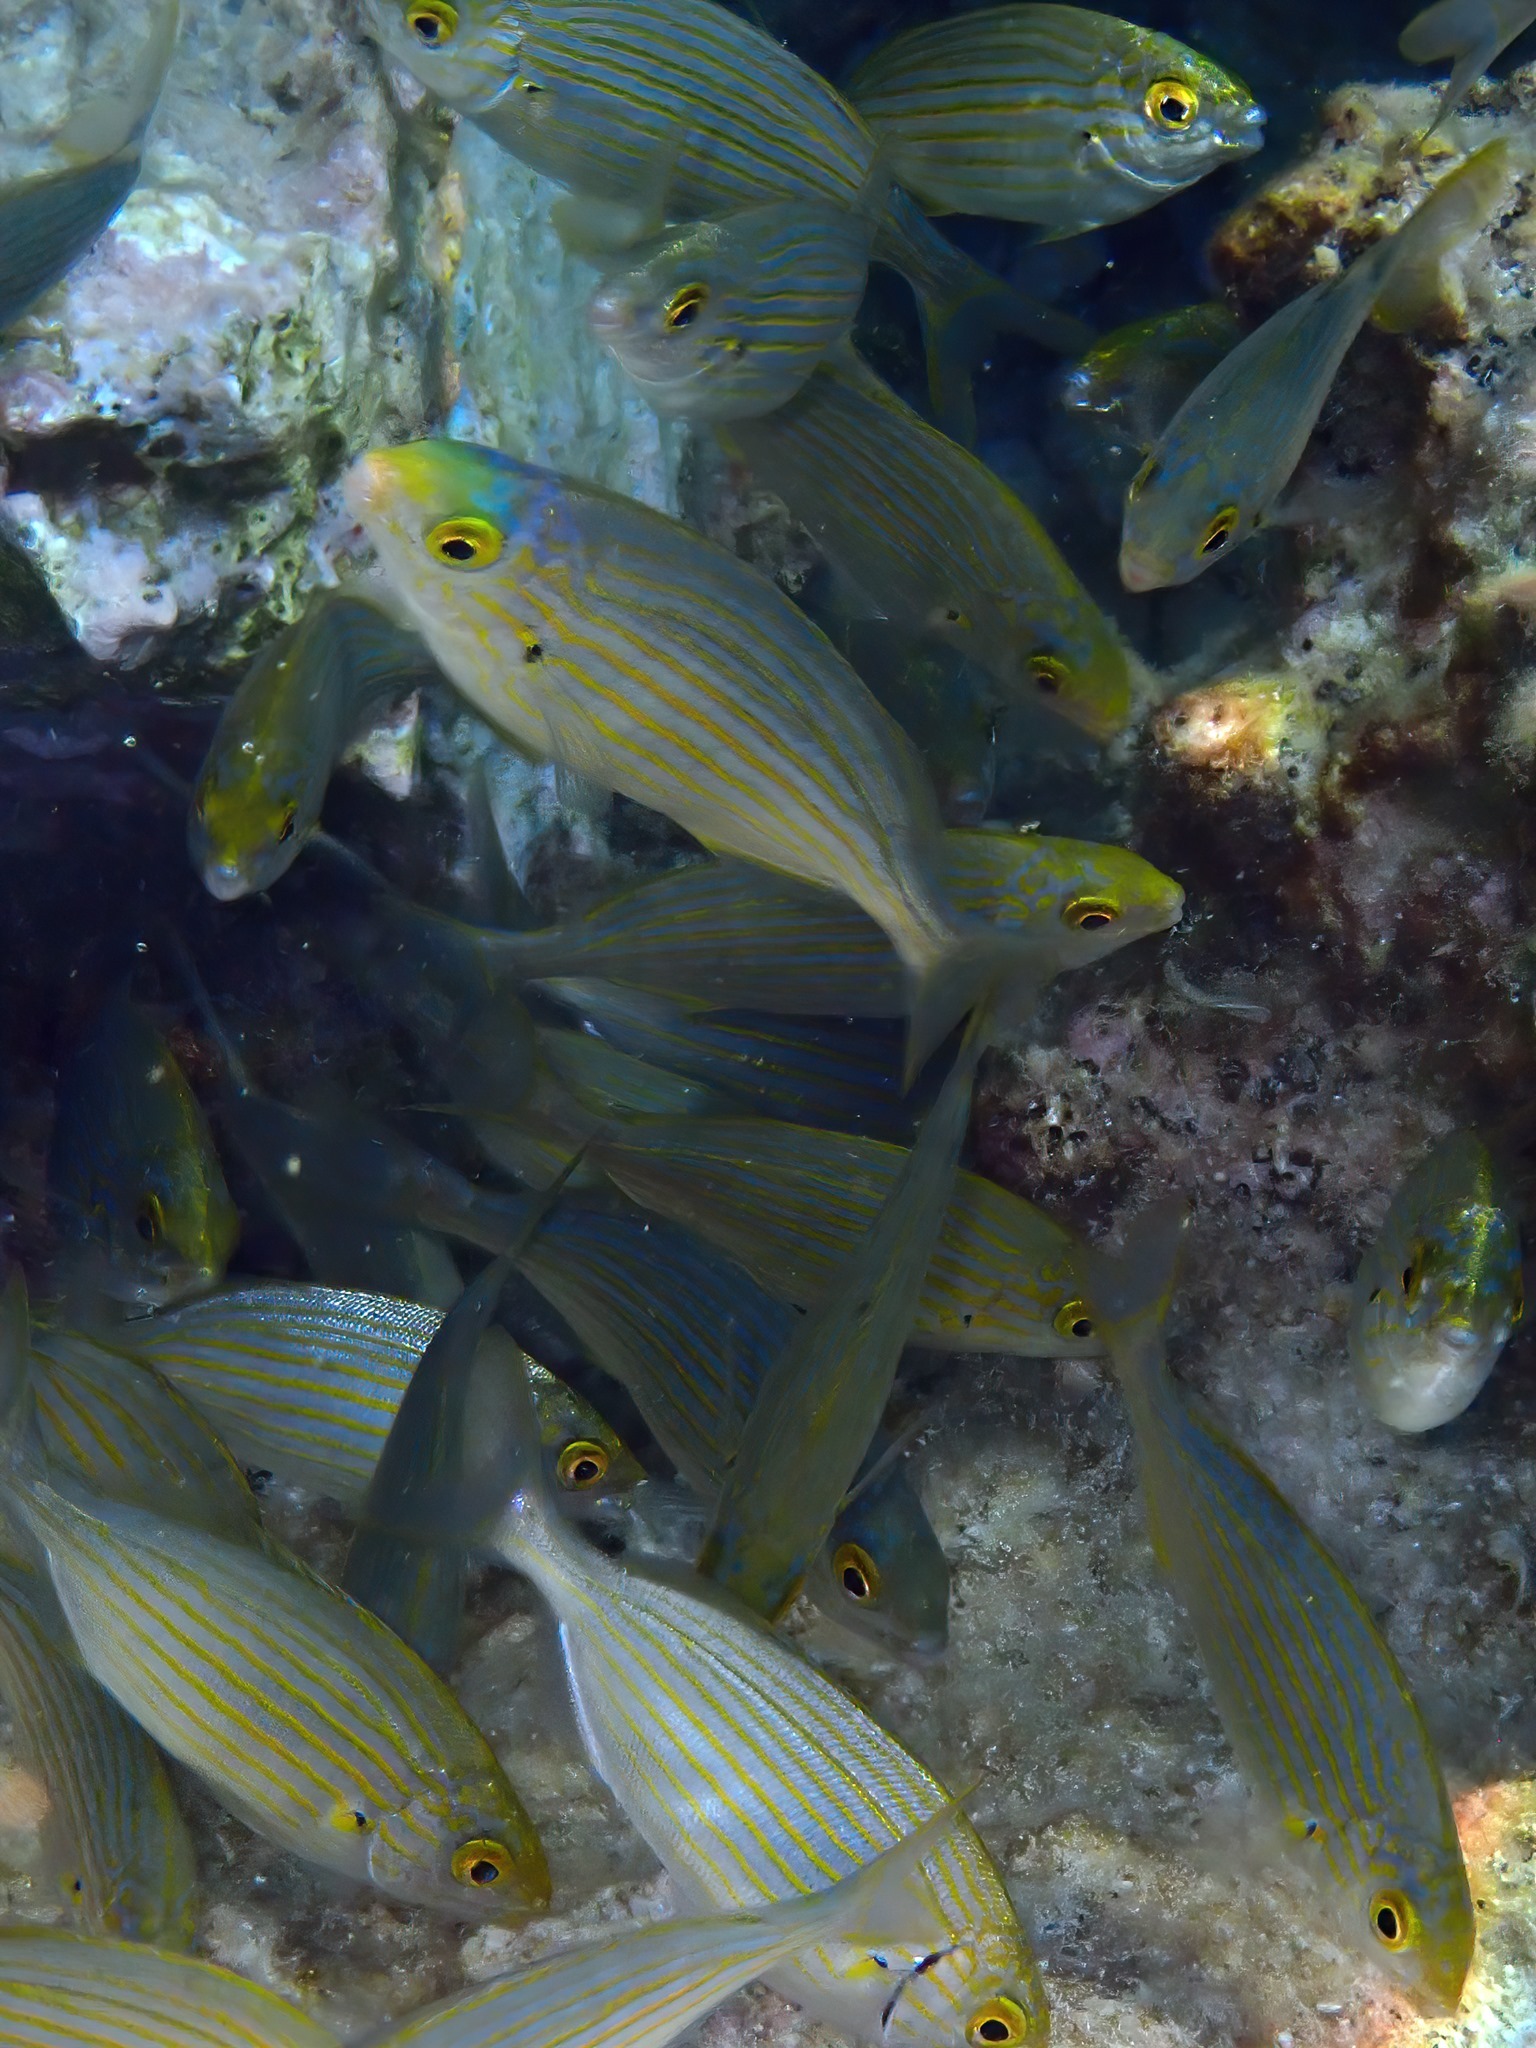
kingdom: Animalia
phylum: Chordata
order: Perciformes
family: Sparidae
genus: Sarpa
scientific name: Sarpa salpa
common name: Salema
